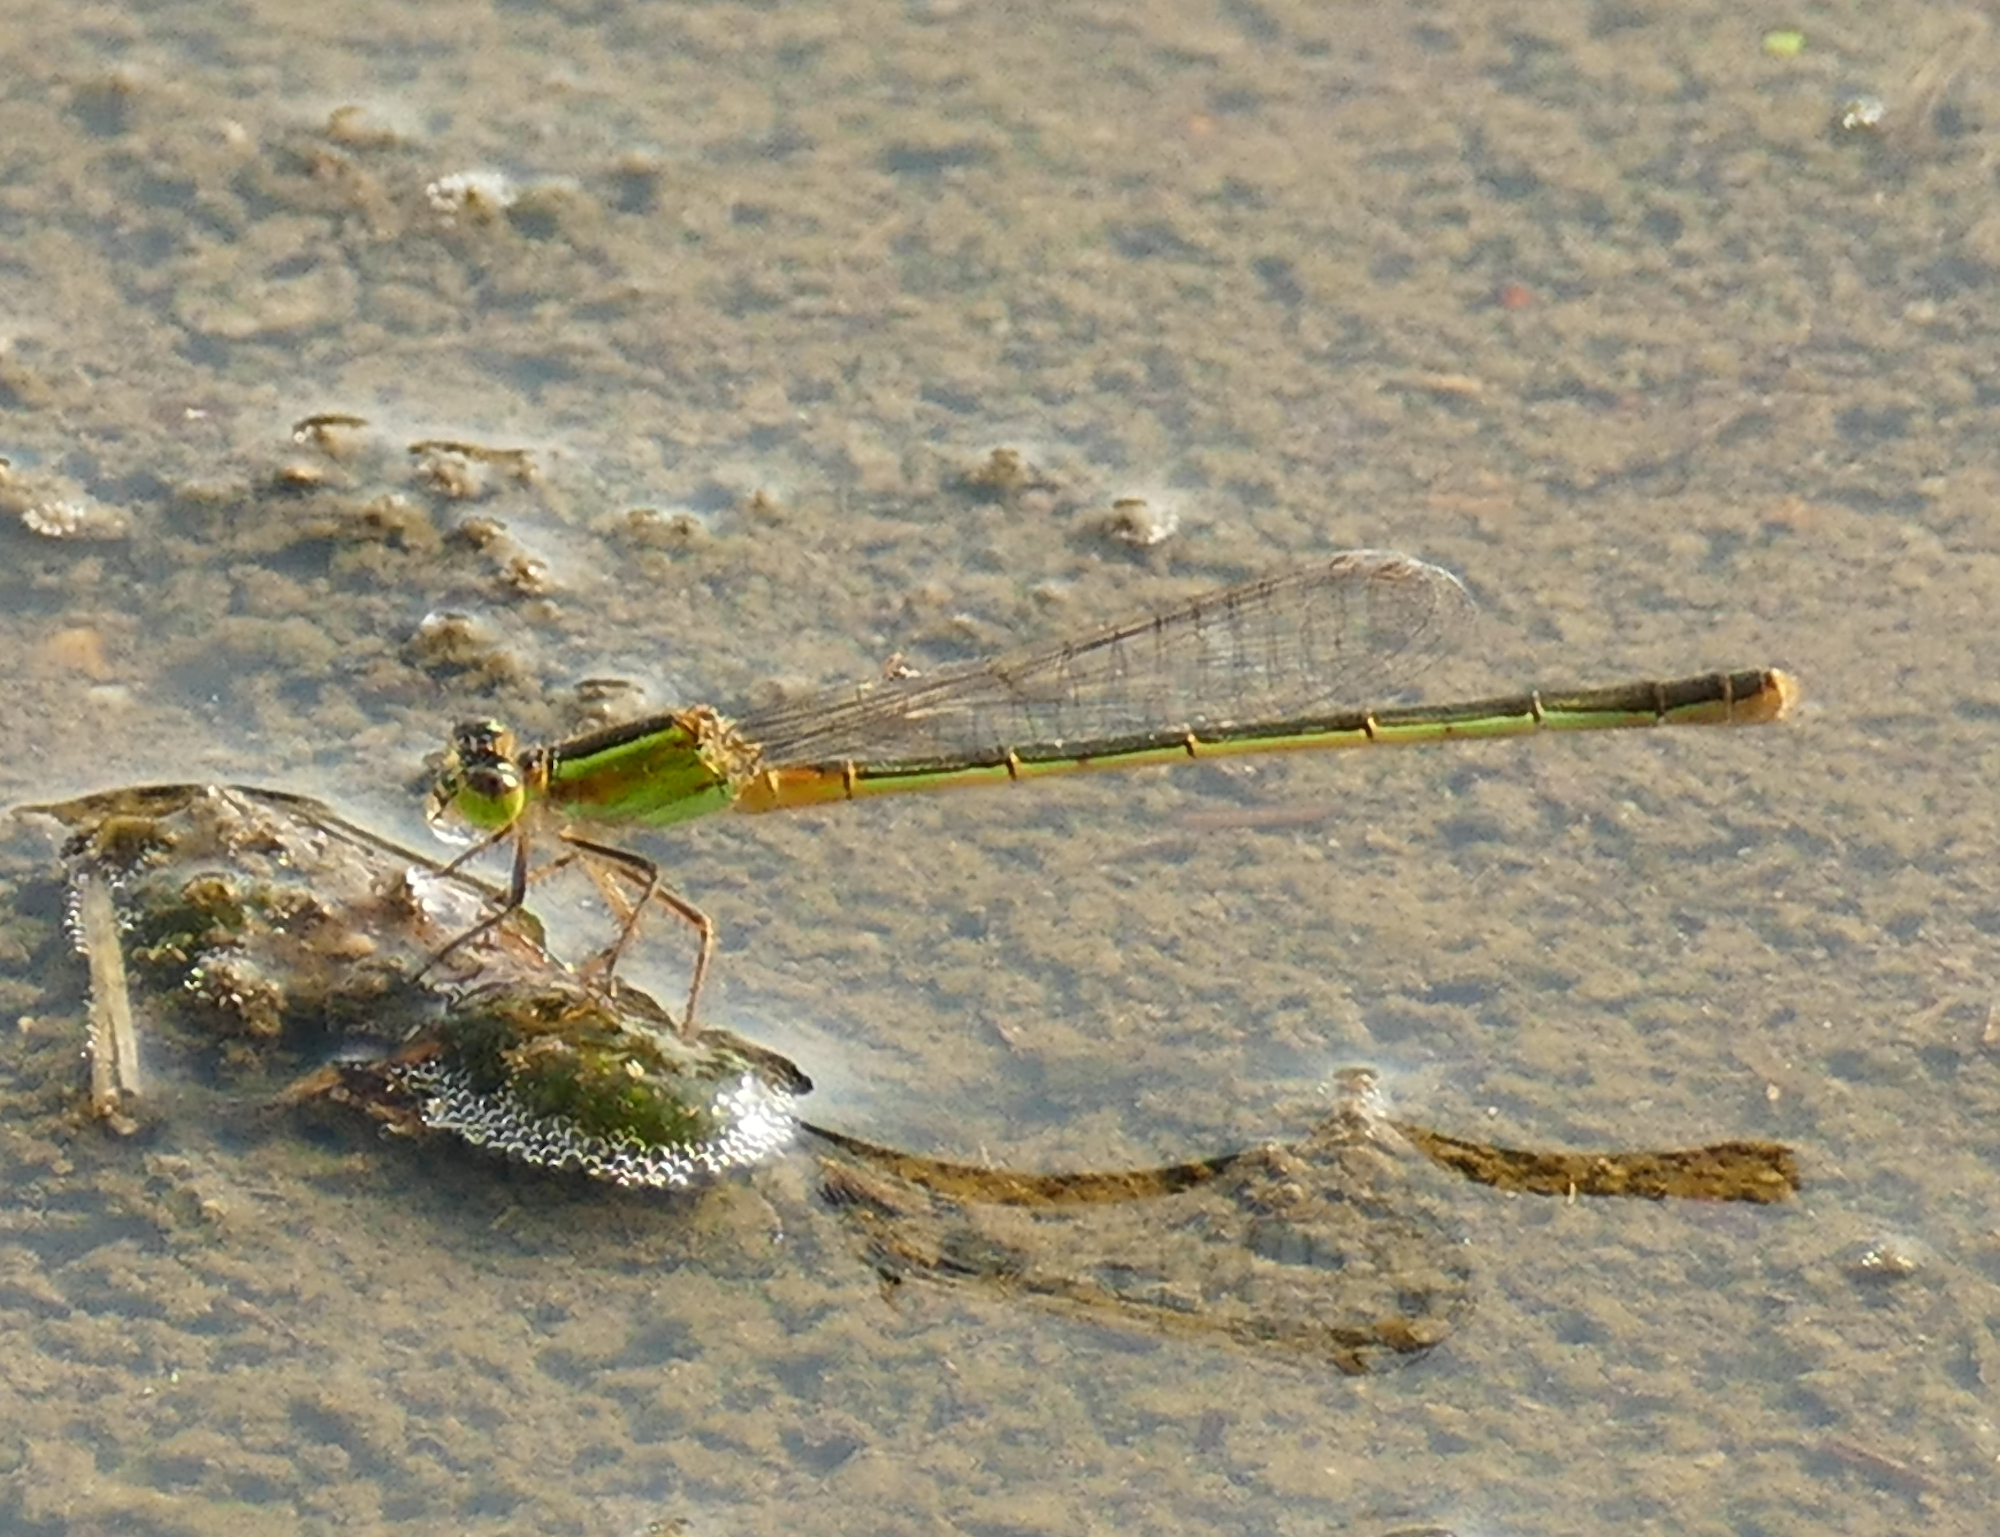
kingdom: Animalia
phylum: Arthropoda
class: Insecta
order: Odonata
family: Coenagrionidae
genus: Ischnura
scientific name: Ischnura ramburii
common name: Rambur's forktail
